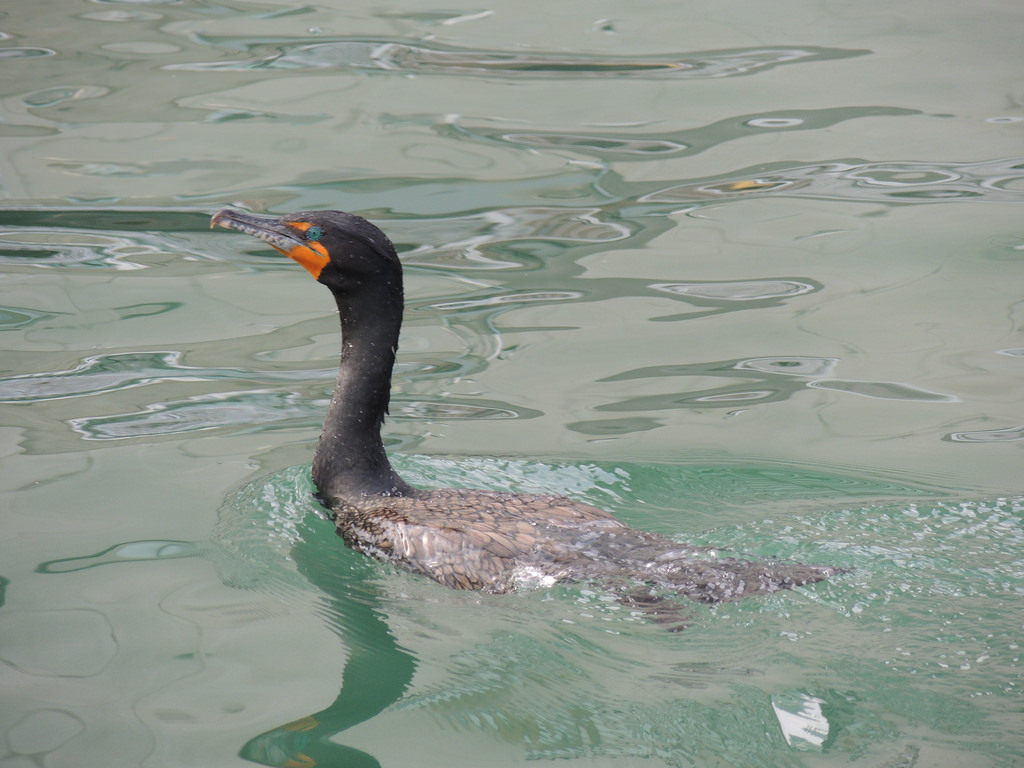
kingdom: Animalia
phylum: Chordata
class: Aves
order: Suliformes
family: Phalacrocoracidae
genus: Phalacrocorax
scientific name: Phalacrocorax auritus
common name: Double-crested cormorant
